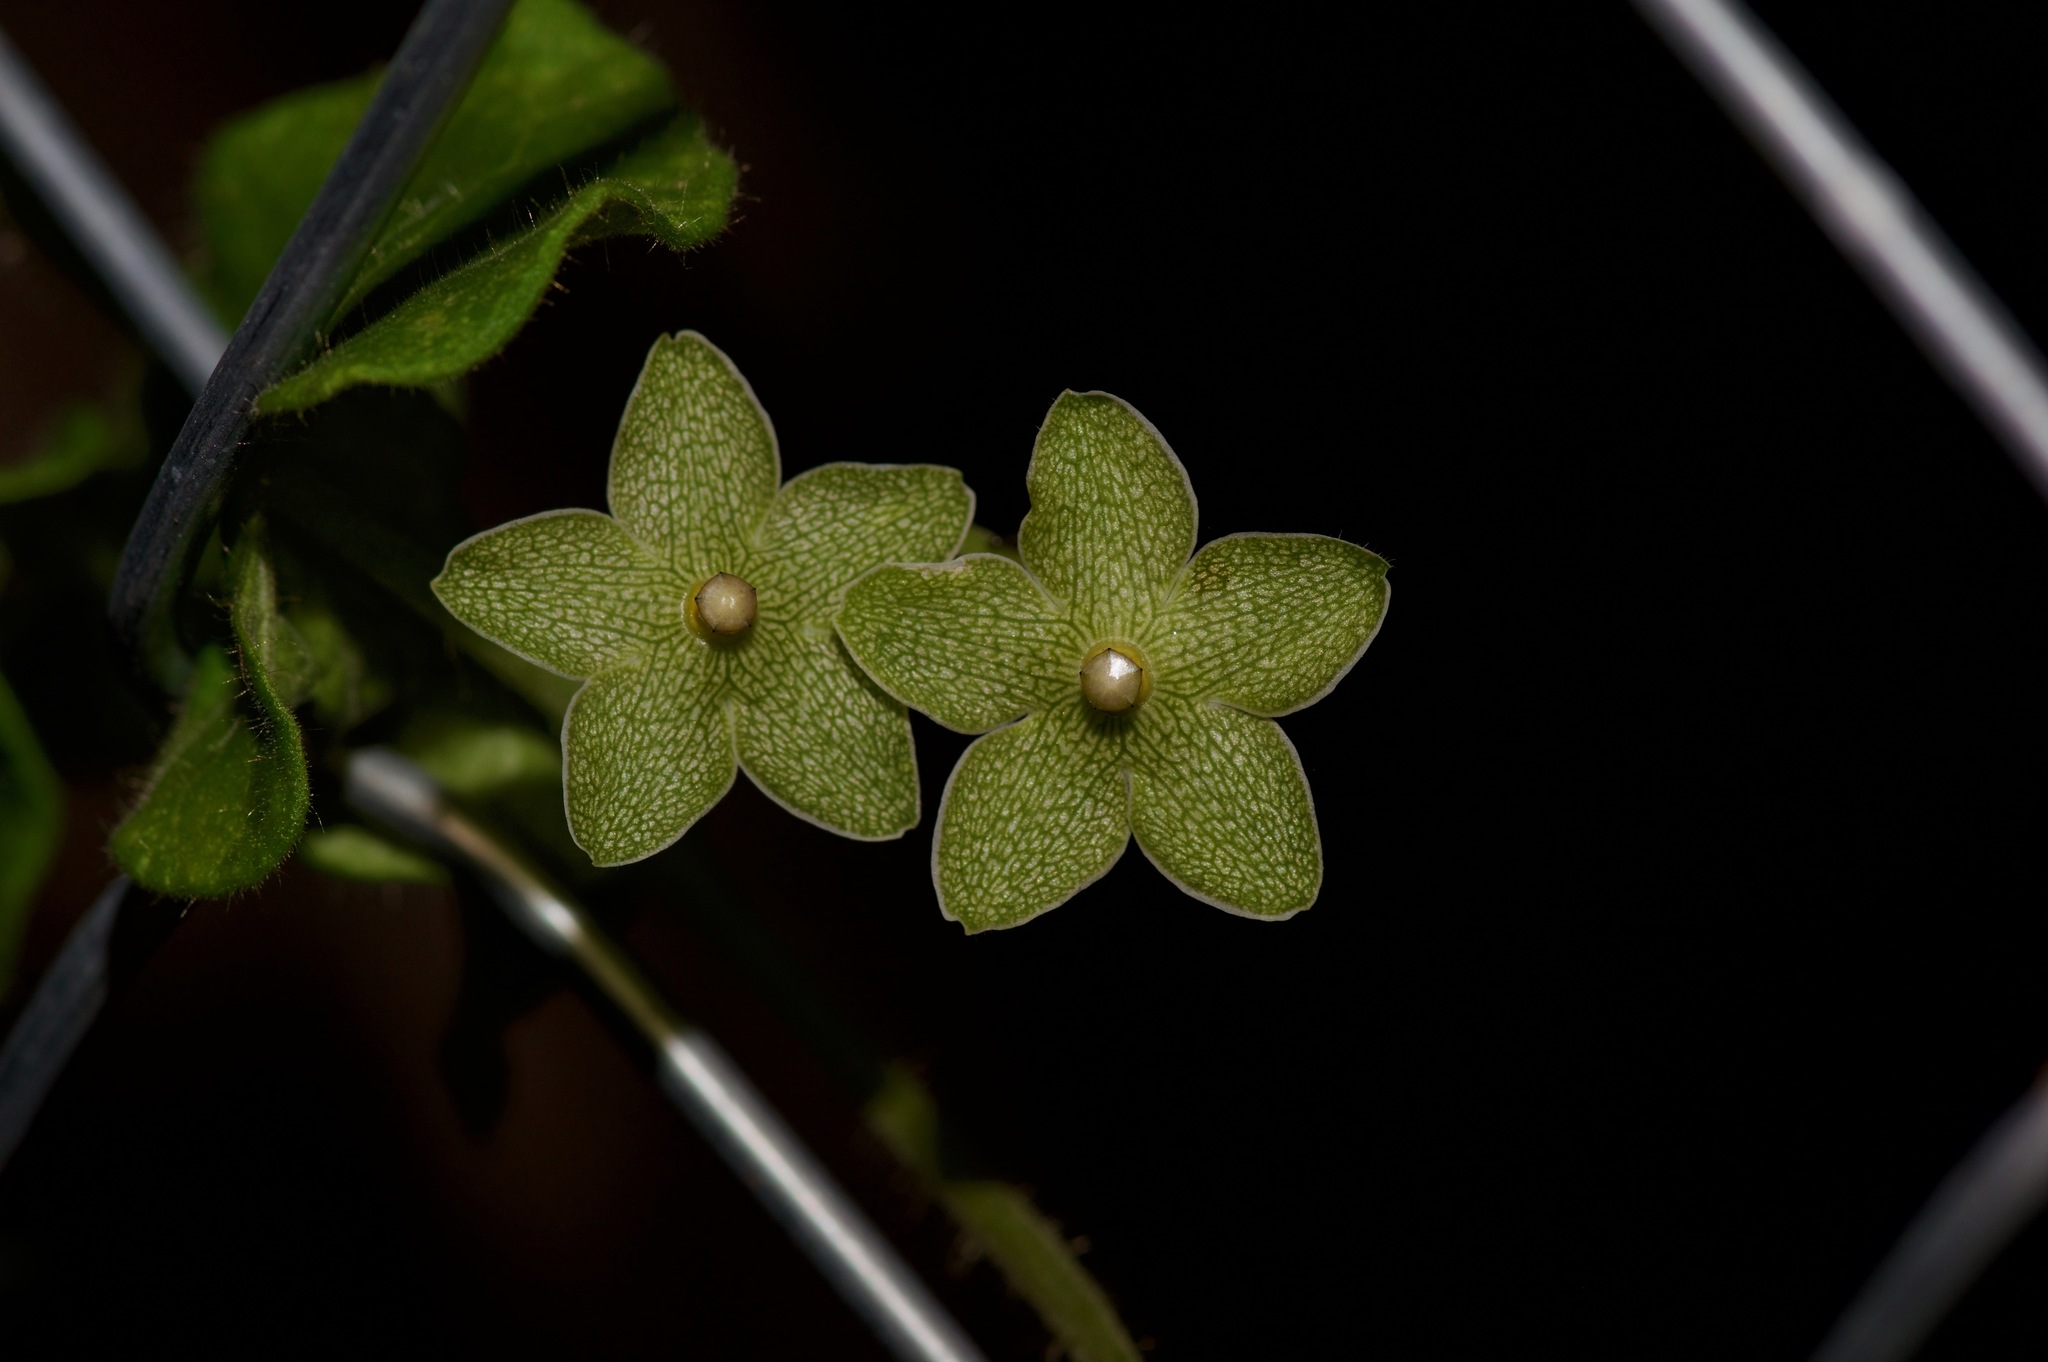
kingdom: Plantae
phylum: Tracheophyta
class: Magnoliopsida
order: Gentianales
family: Apocynaceae
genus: Dictyanthus
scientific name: Dictyanthus reticulatus
